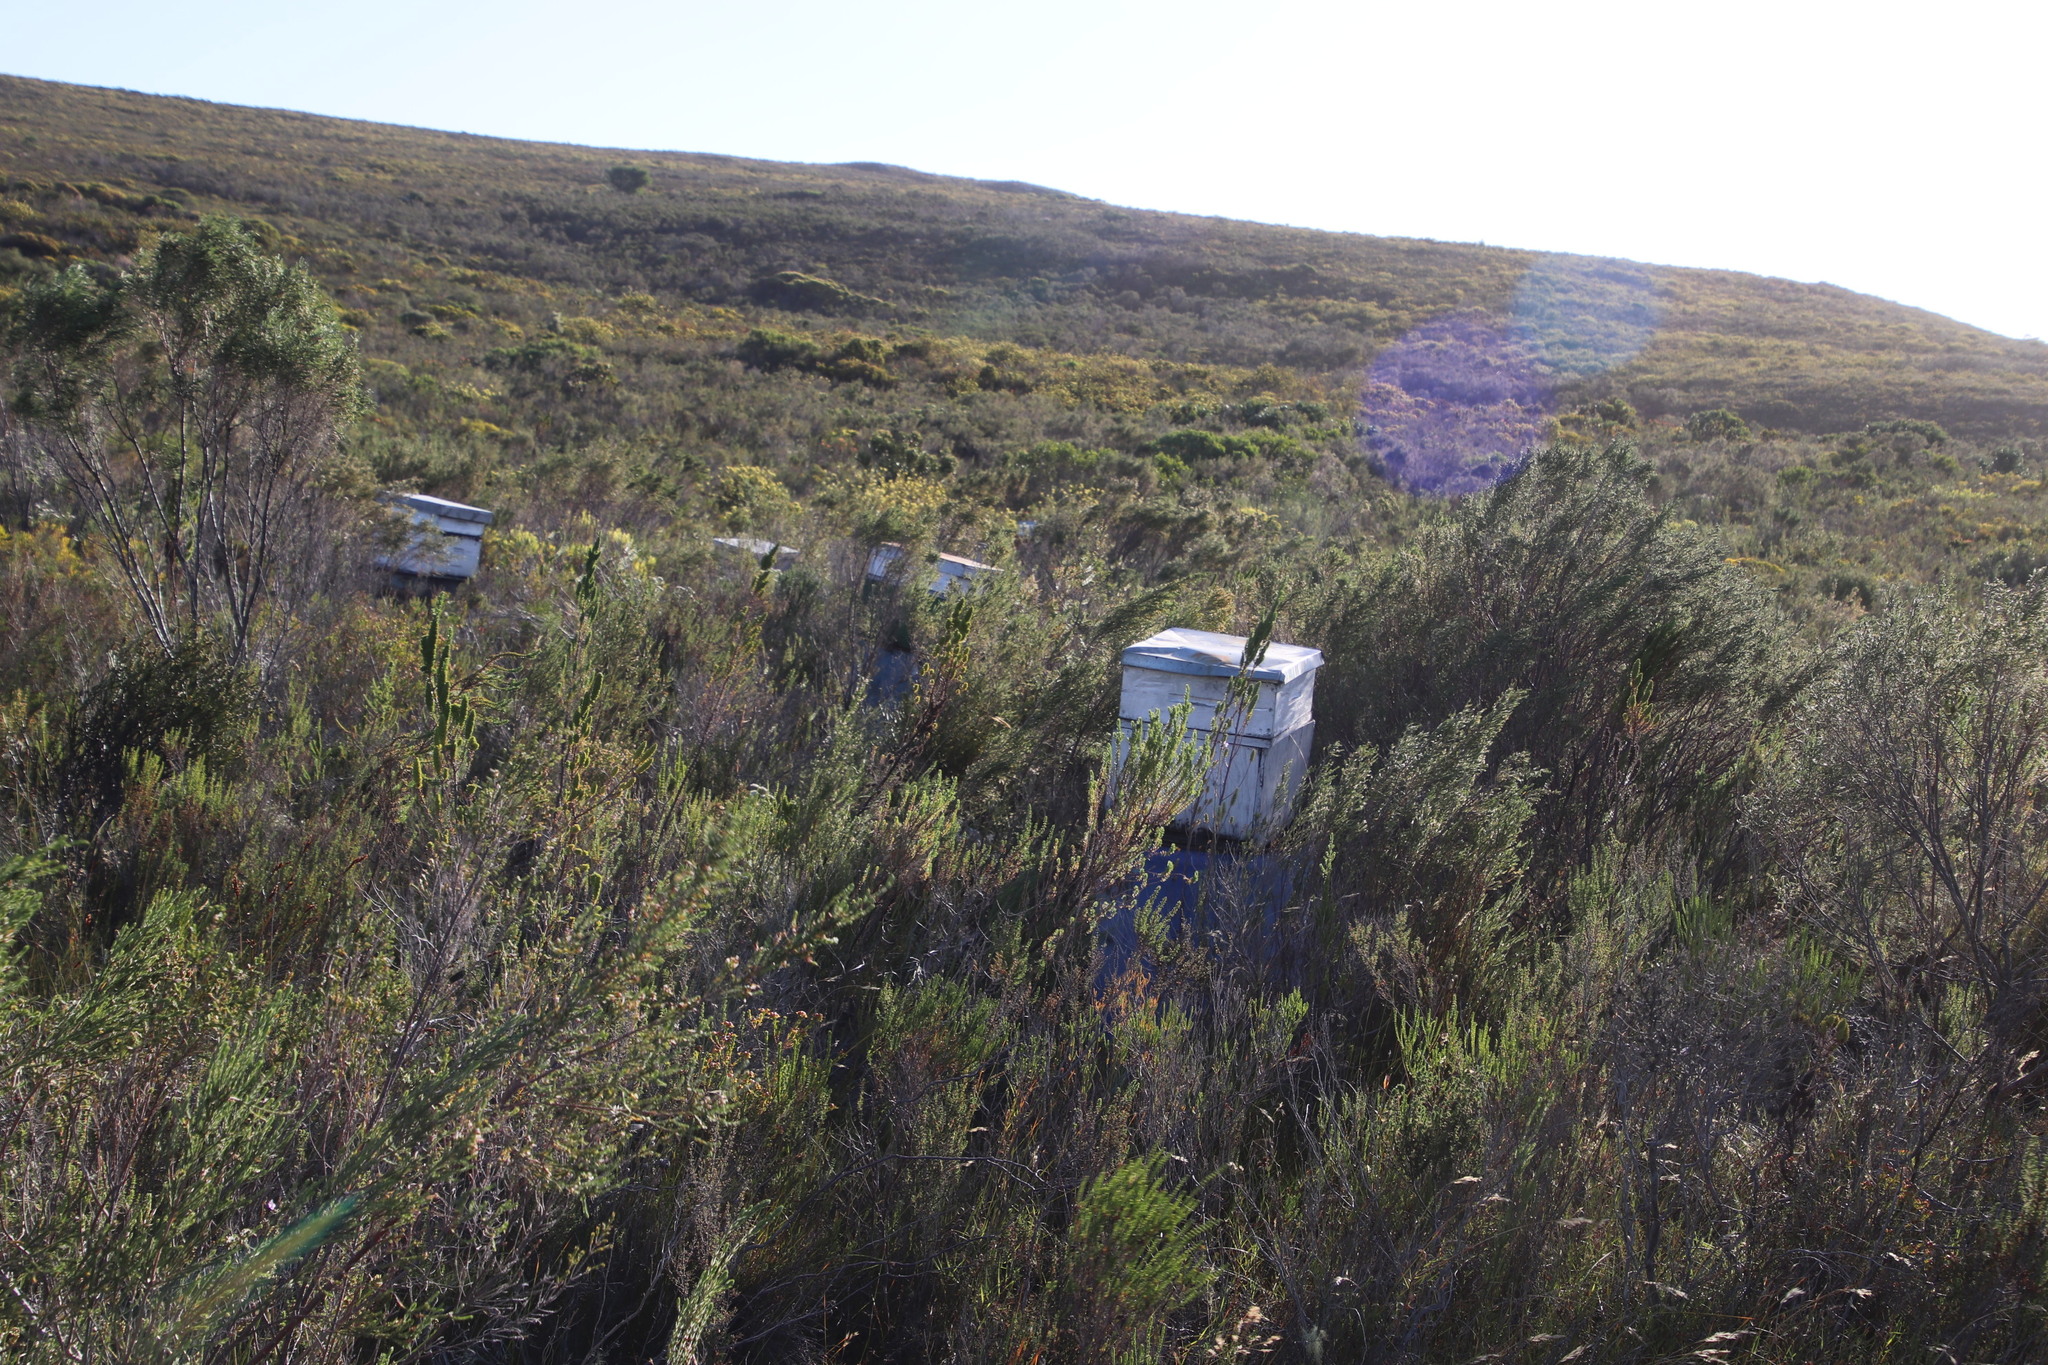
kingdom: Animalia
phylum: Arthropoda
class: Insecta
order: Hymenoptera
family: Apidae
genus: Apis
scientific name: Apis mellifera
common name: Honey bee
